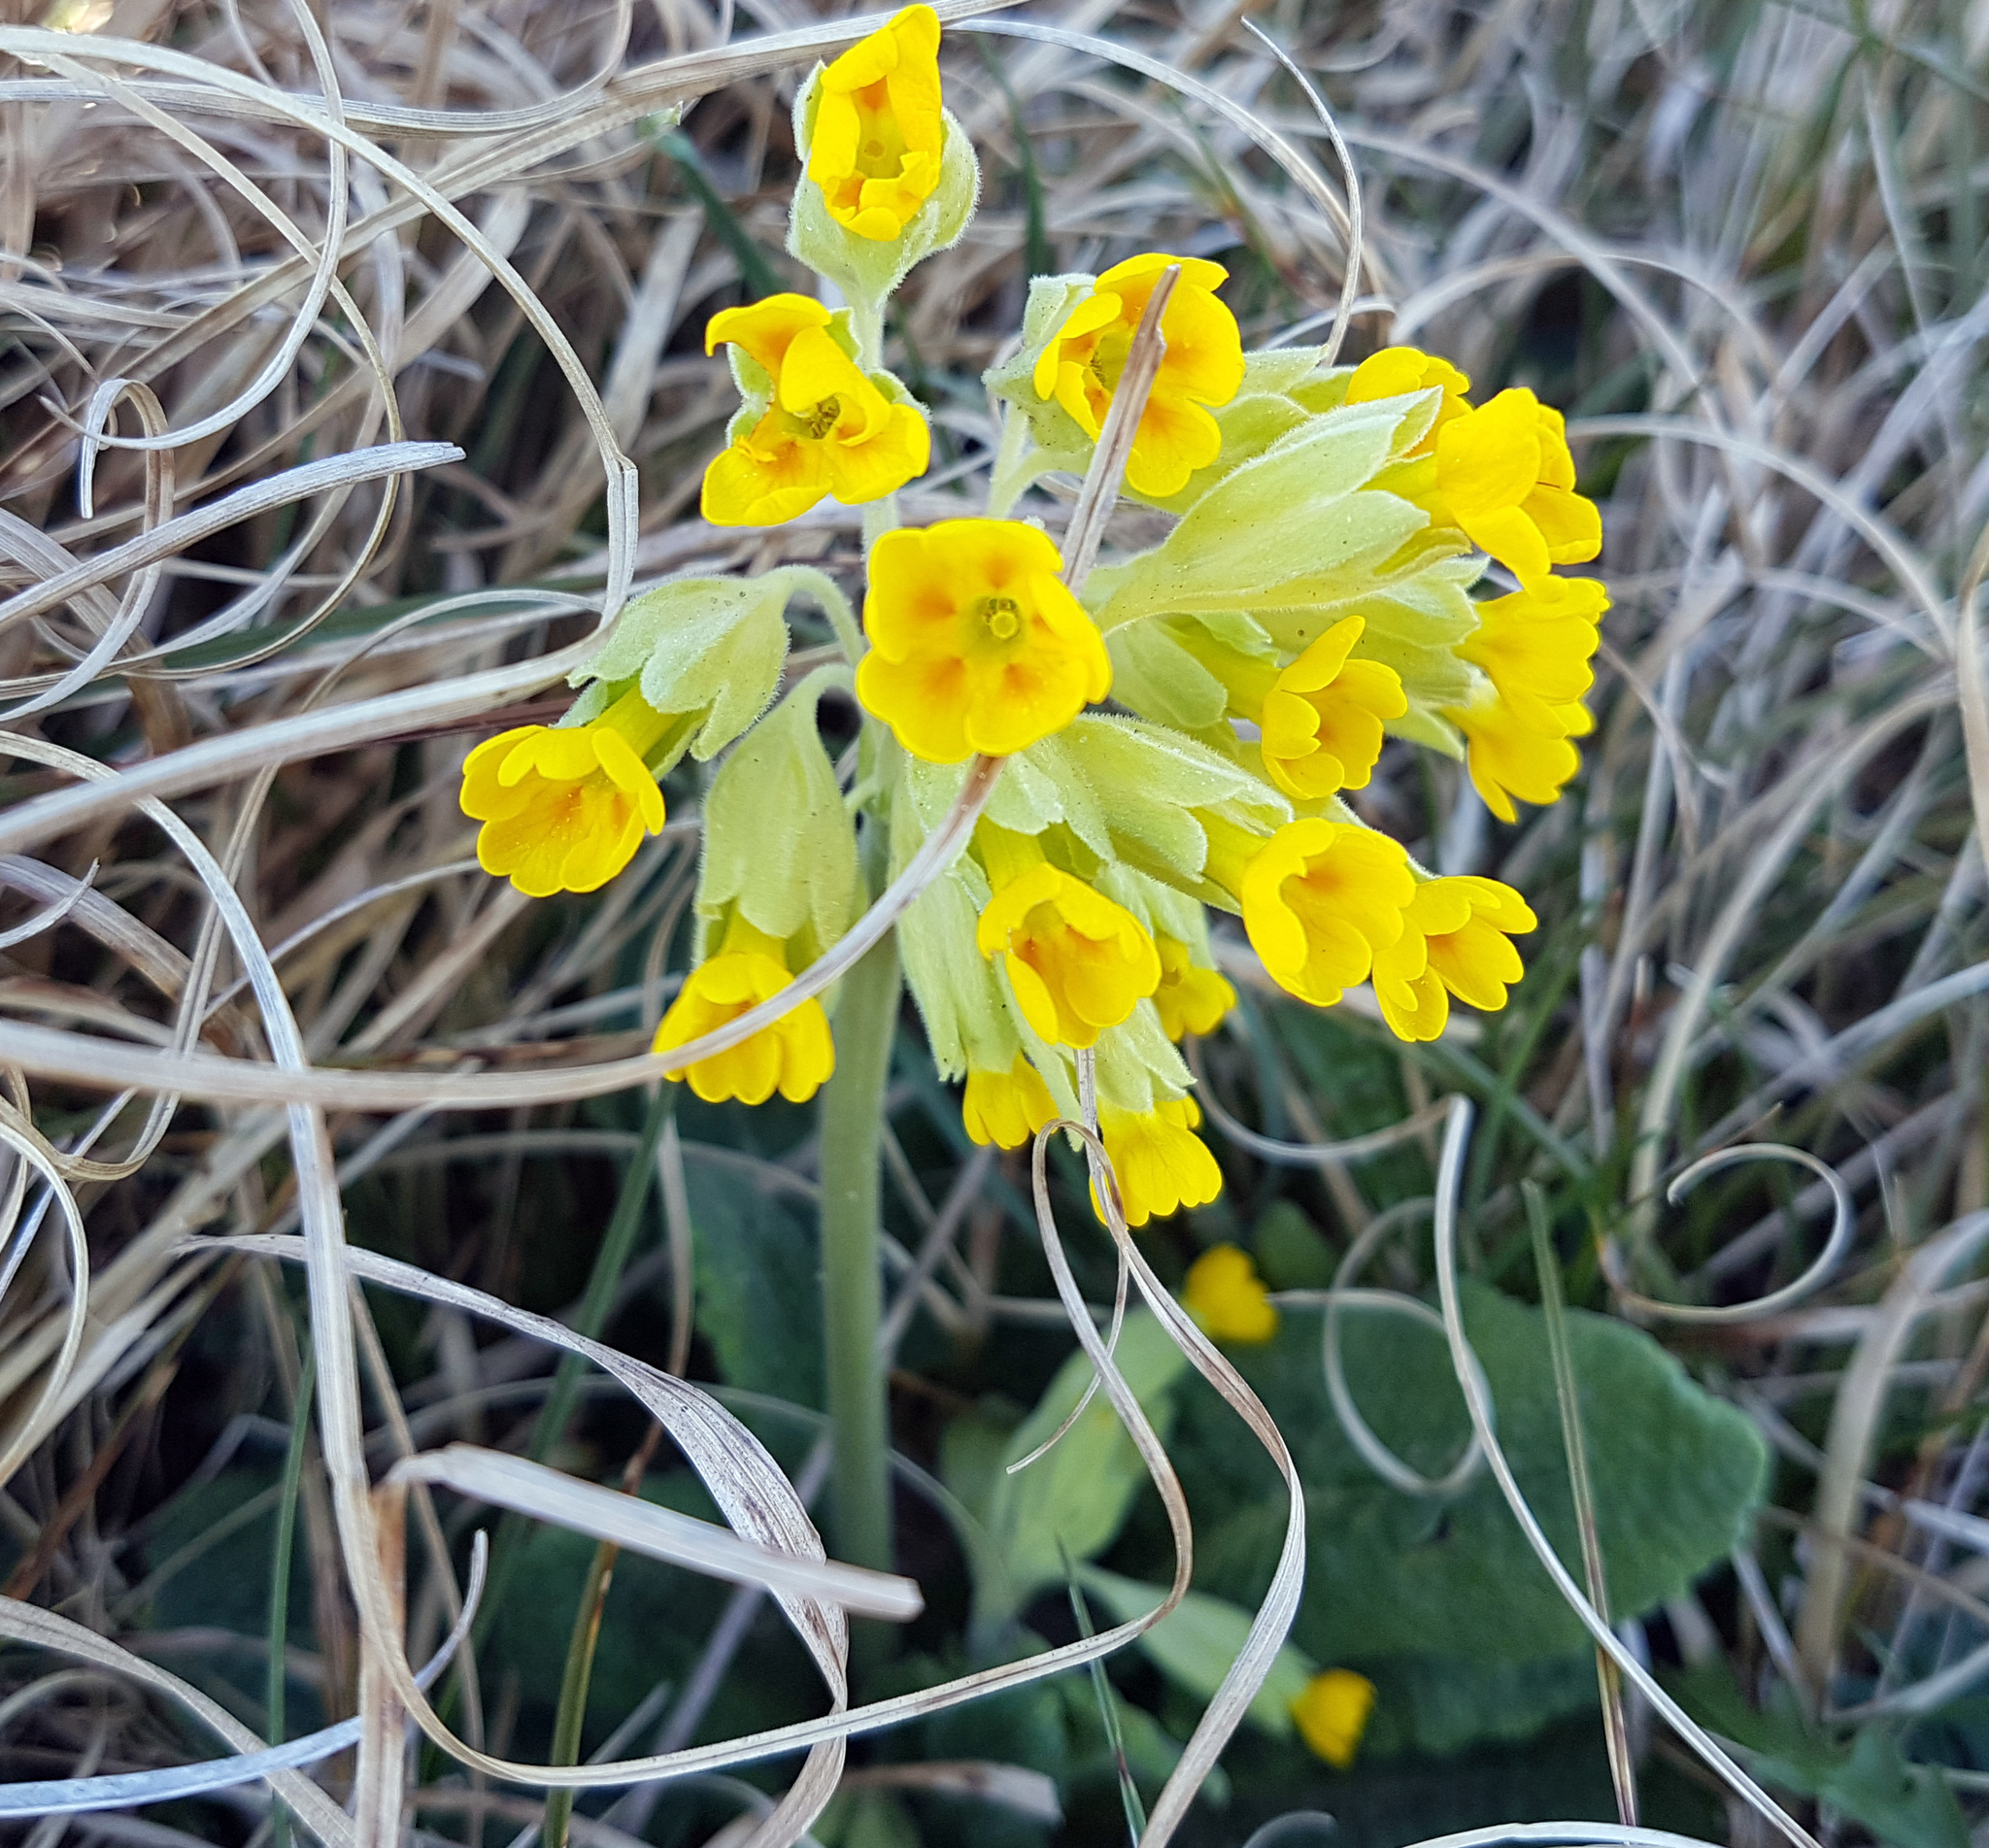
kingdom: Plantae
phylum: Tracheophyta
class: Magnoliopsida
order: Ericales
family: Primulaceae
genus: Primula
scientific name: Primula veris
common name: Cowslip
